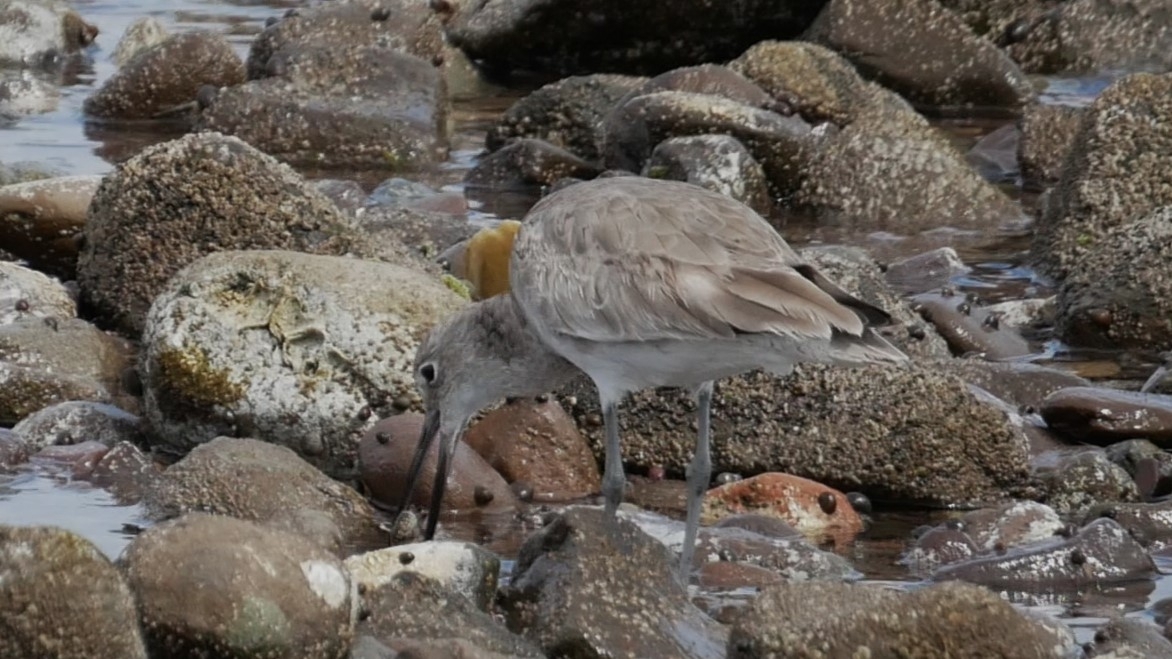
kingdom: Animalia
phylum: Chordata
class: Aves
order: Charadriiformes
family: Scolopacidae
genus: Tringa
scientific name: Tringa semipalmata
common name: Willet
